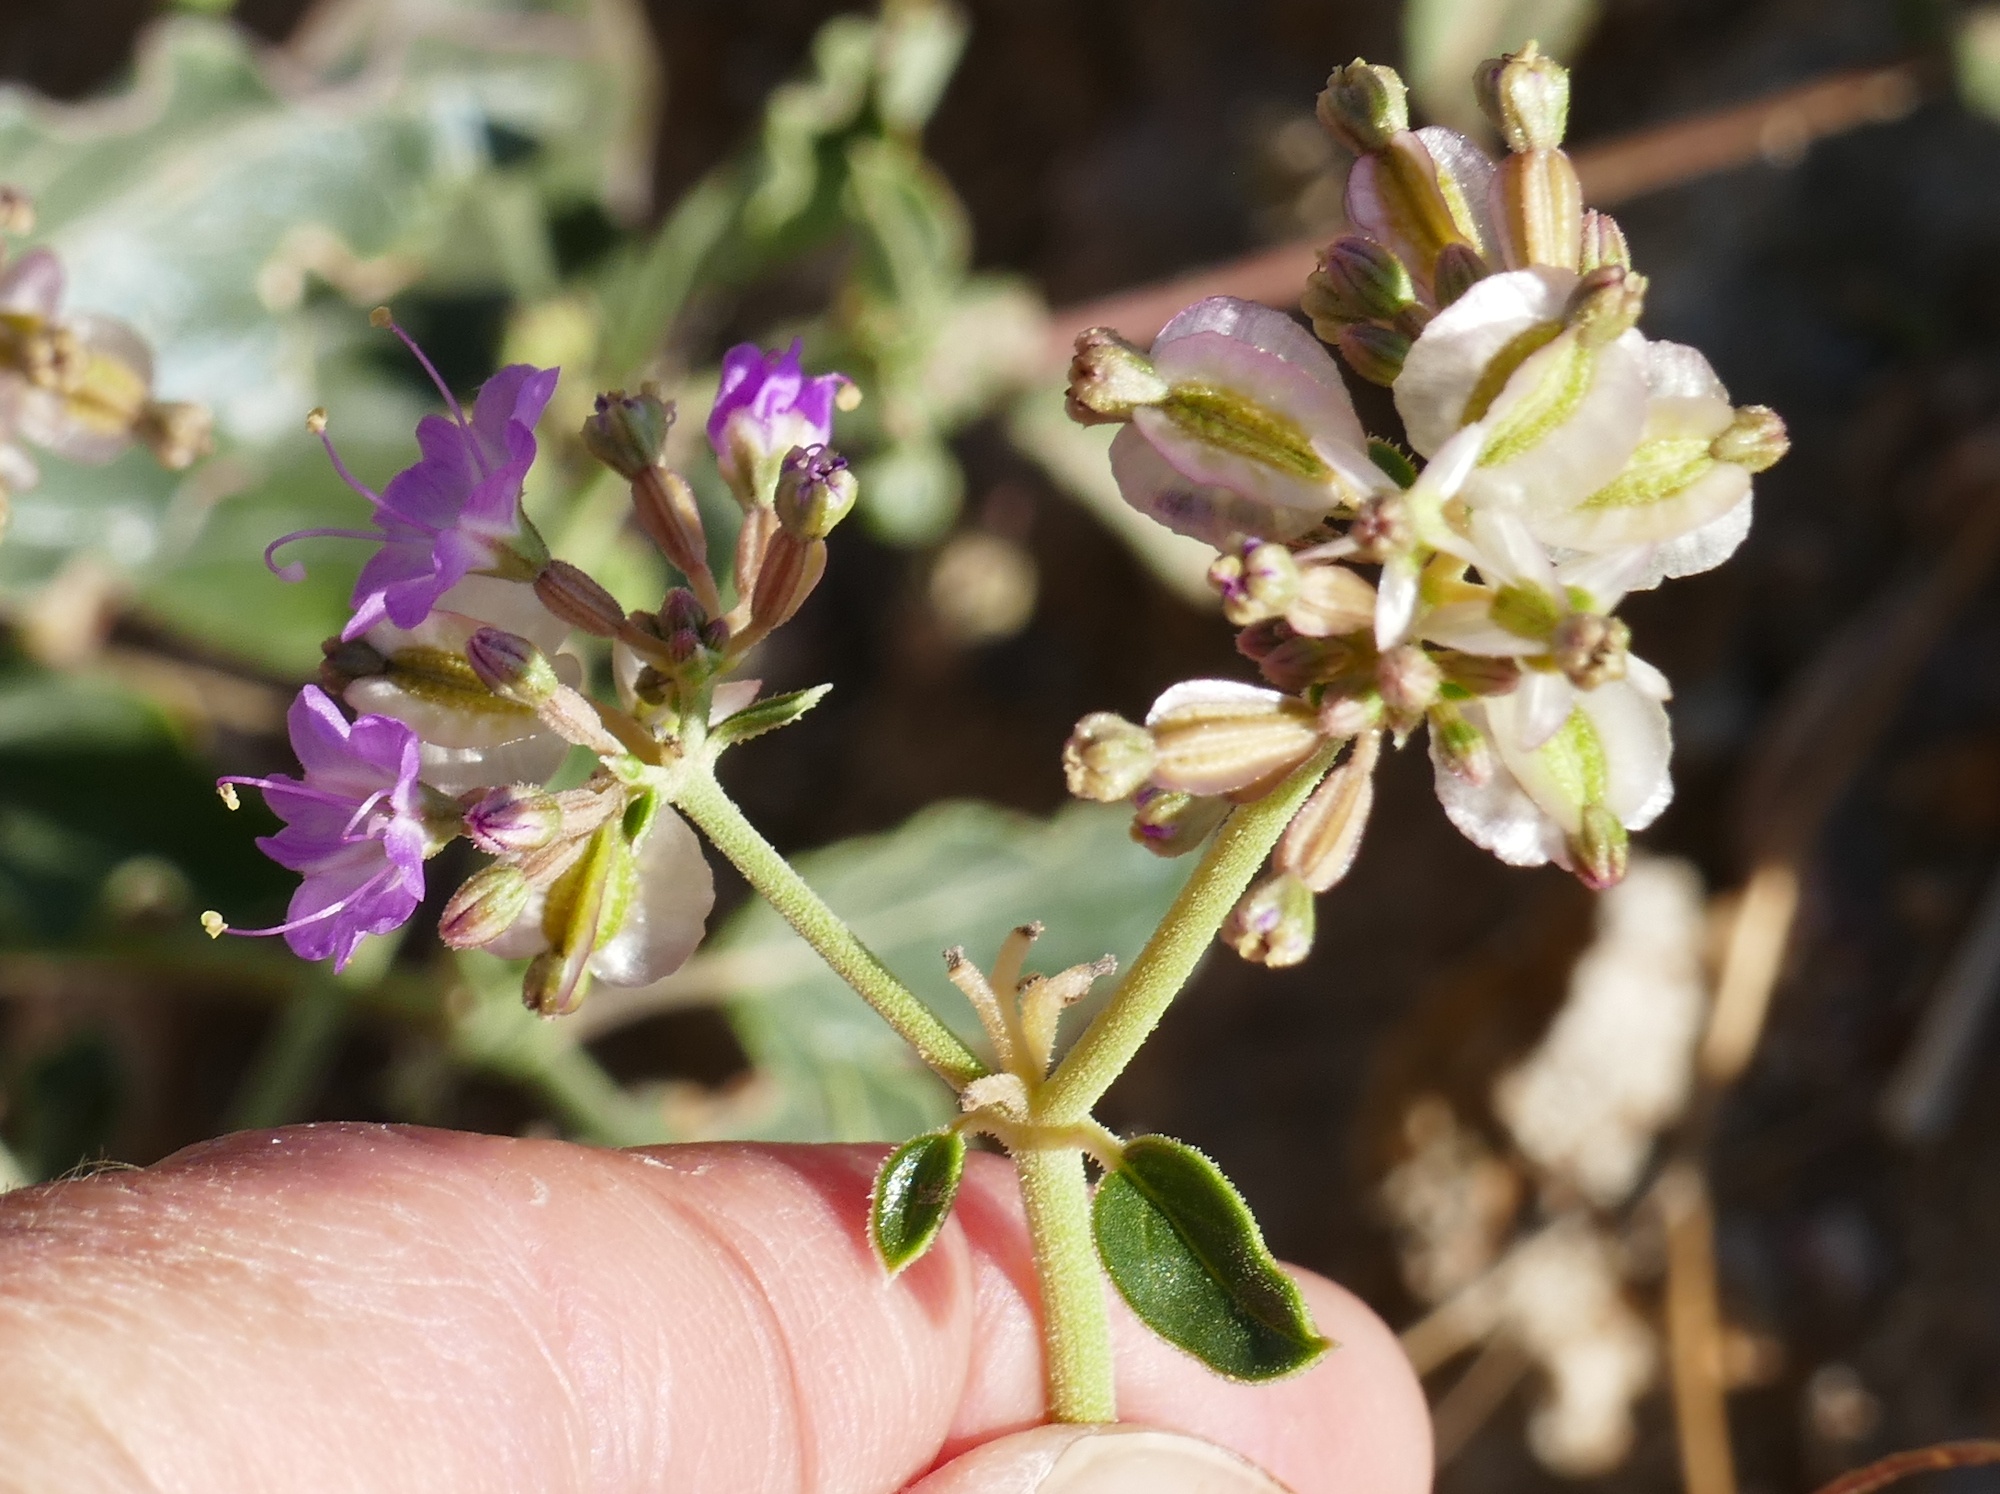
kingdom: Plantae
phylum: Tracheophyta
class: Magnoliopsida
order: Caryophyllales
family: Nyctaginaceae
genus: Acleisanthes
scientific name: Acleisanthes chenopodioides
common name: Goosefoot moonpod
